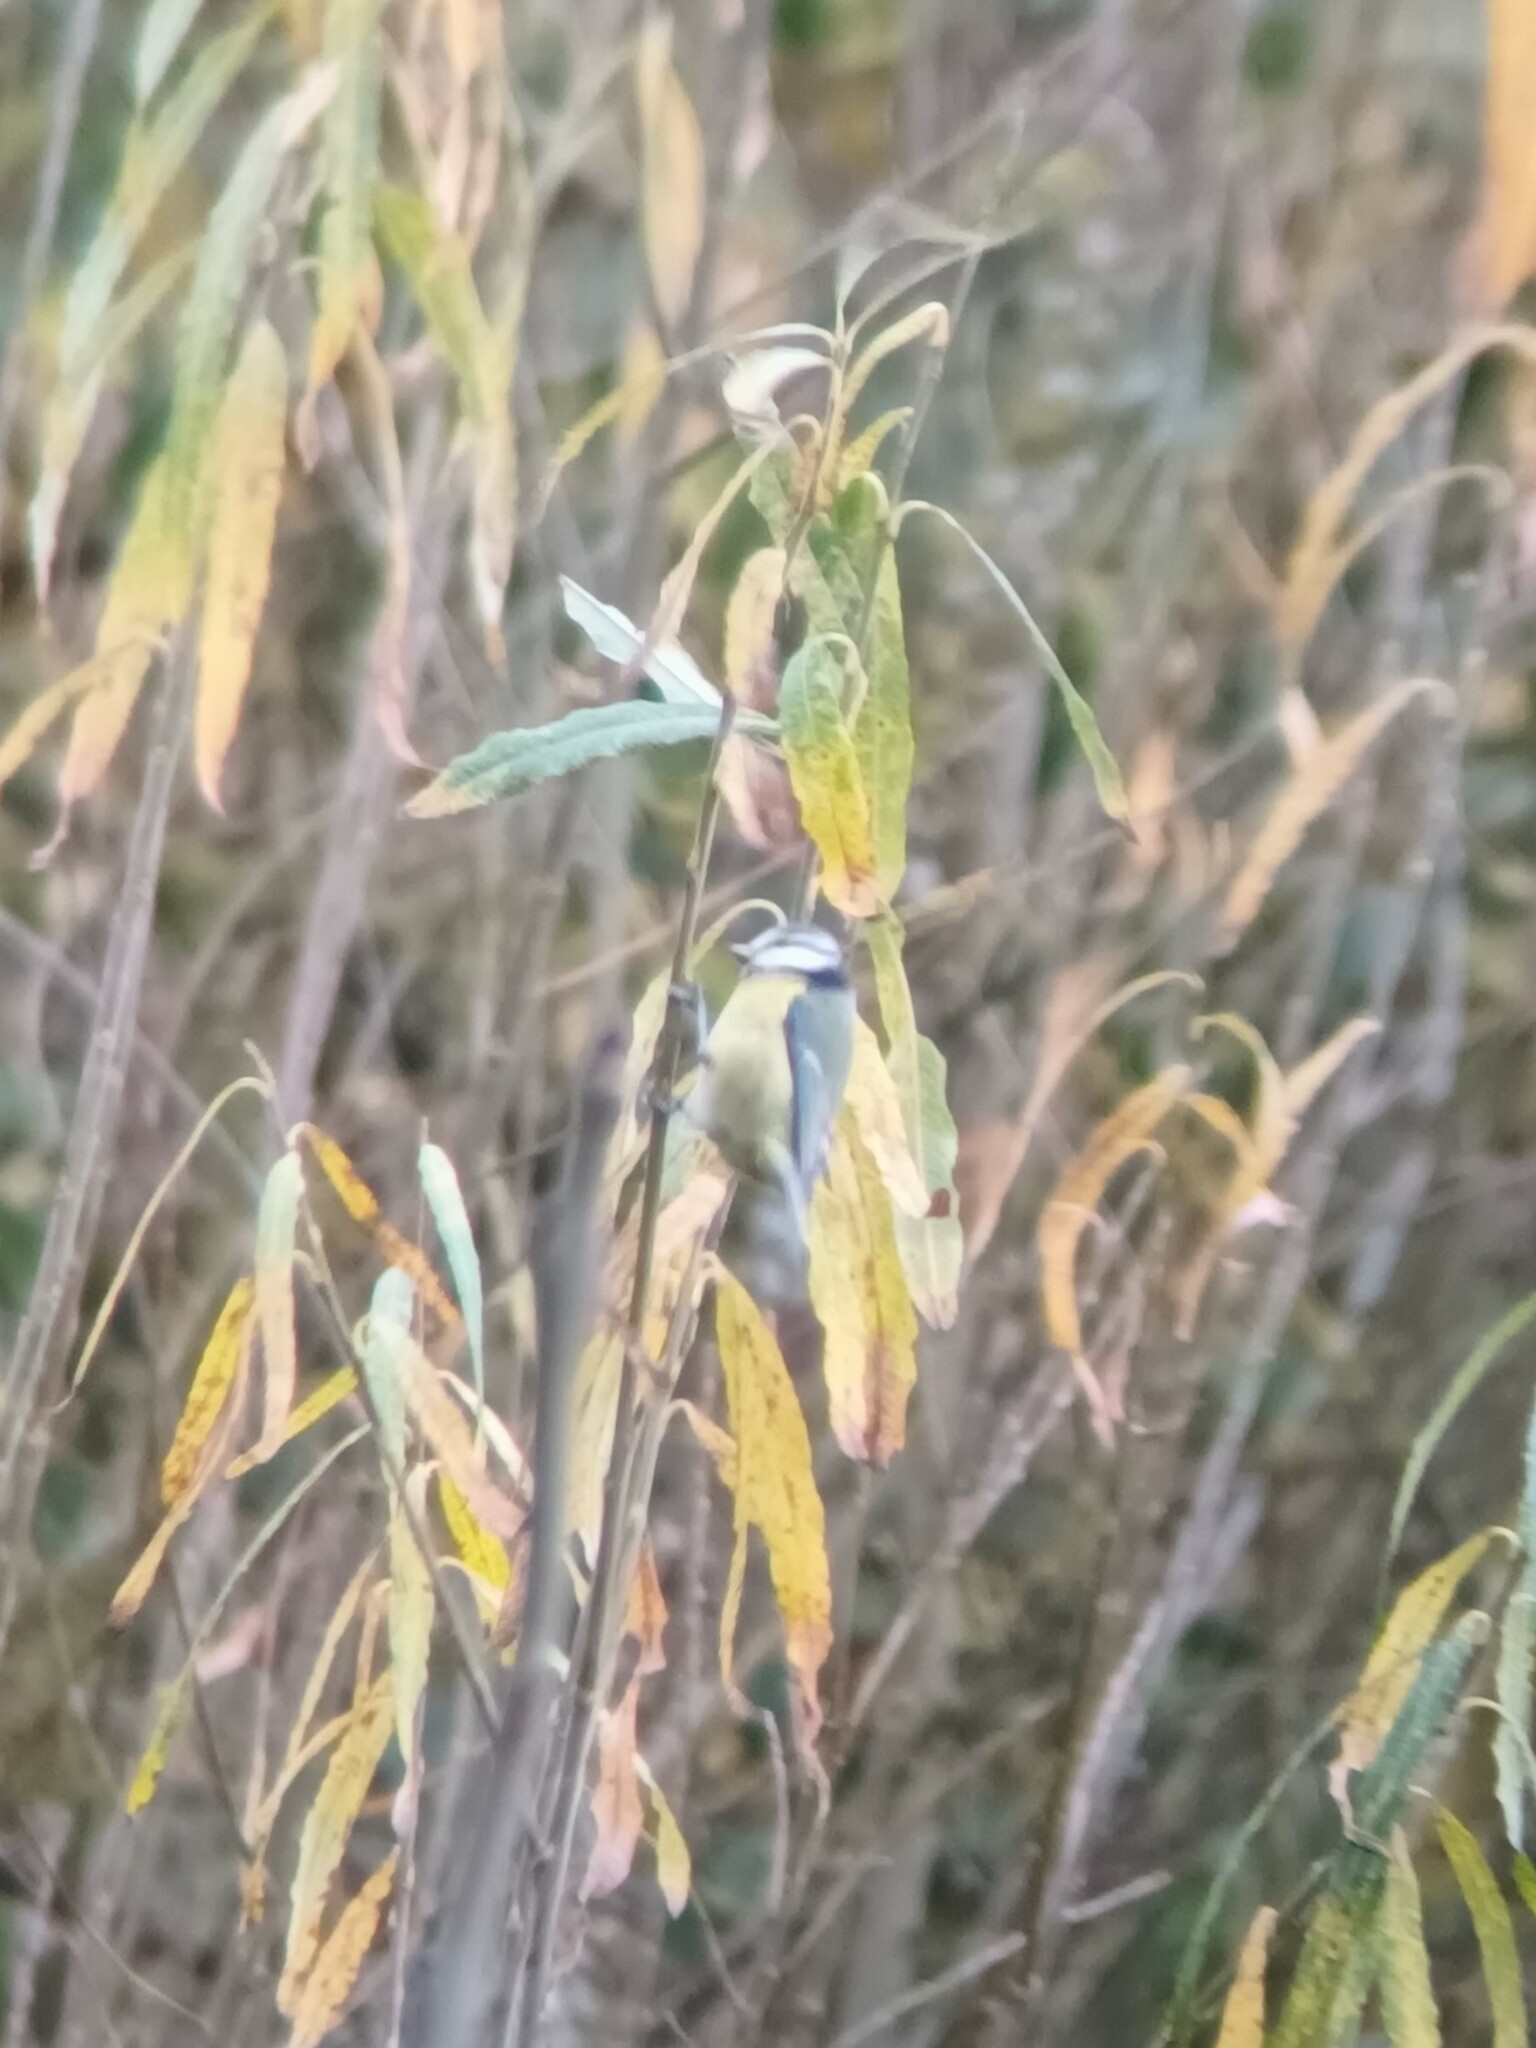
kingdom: Animalia
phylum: Chordata
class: Aves
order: Passeriformes
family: Paridae
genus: Cyanistes
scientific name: Cyanistes caeruleus
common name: Eurasian blue tit
